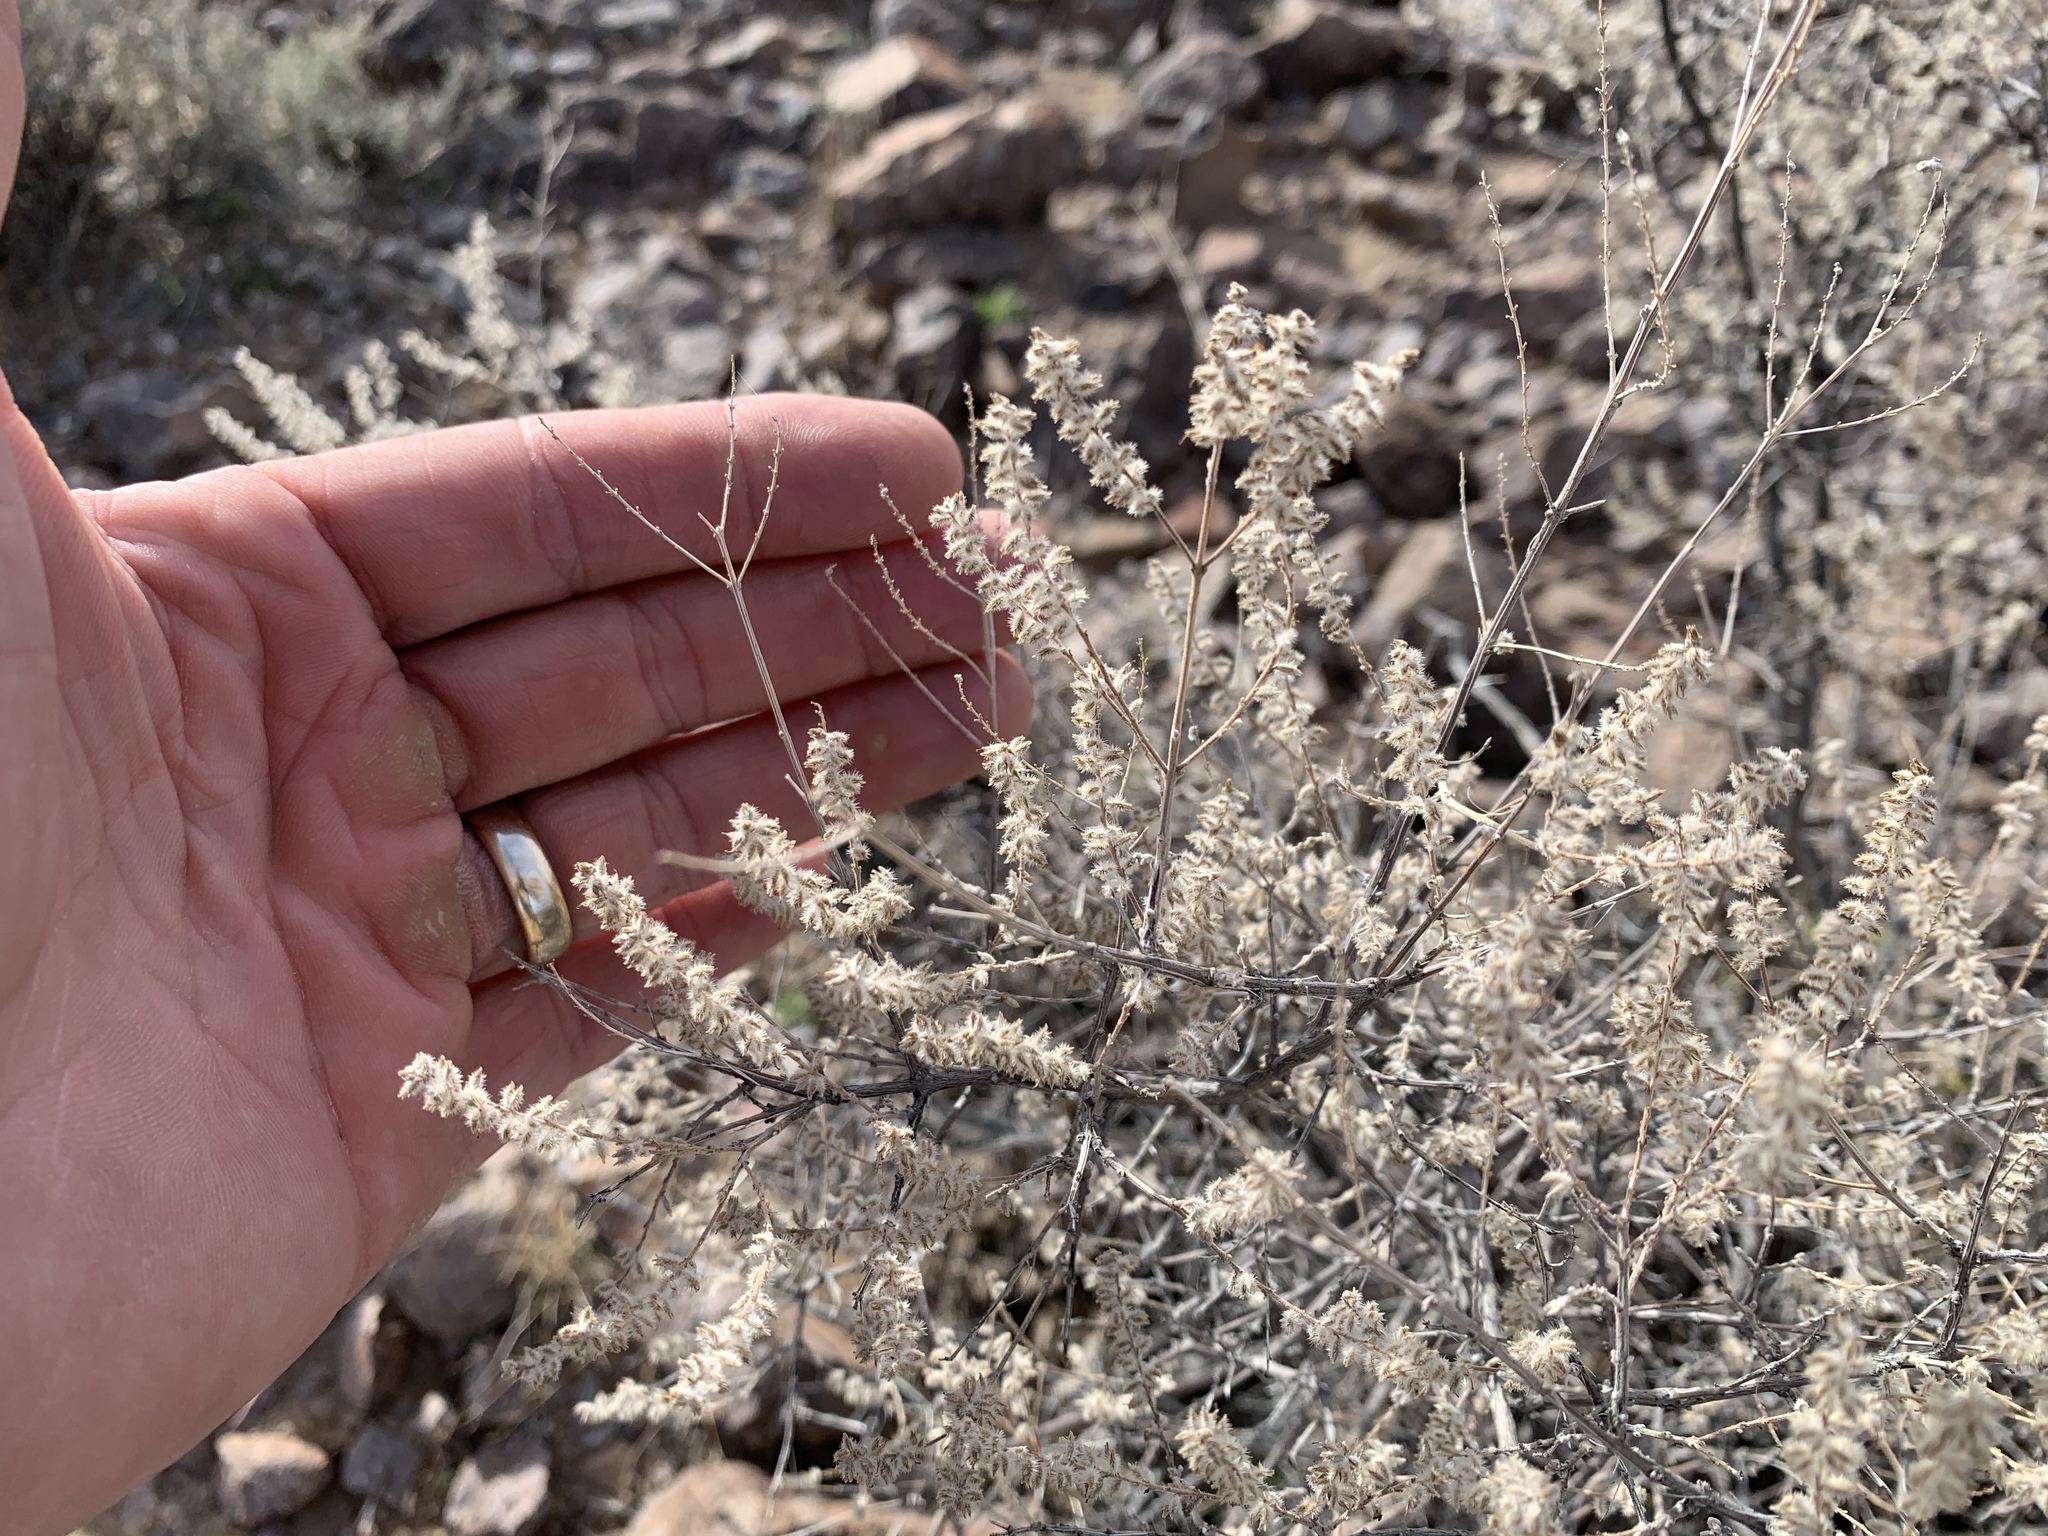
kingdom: Plantae
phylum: Tracheophyta
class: Magnoliopsida
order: Lamiales
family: Verbenaceae
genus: Aloysia
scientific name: Aloysia wrightii
